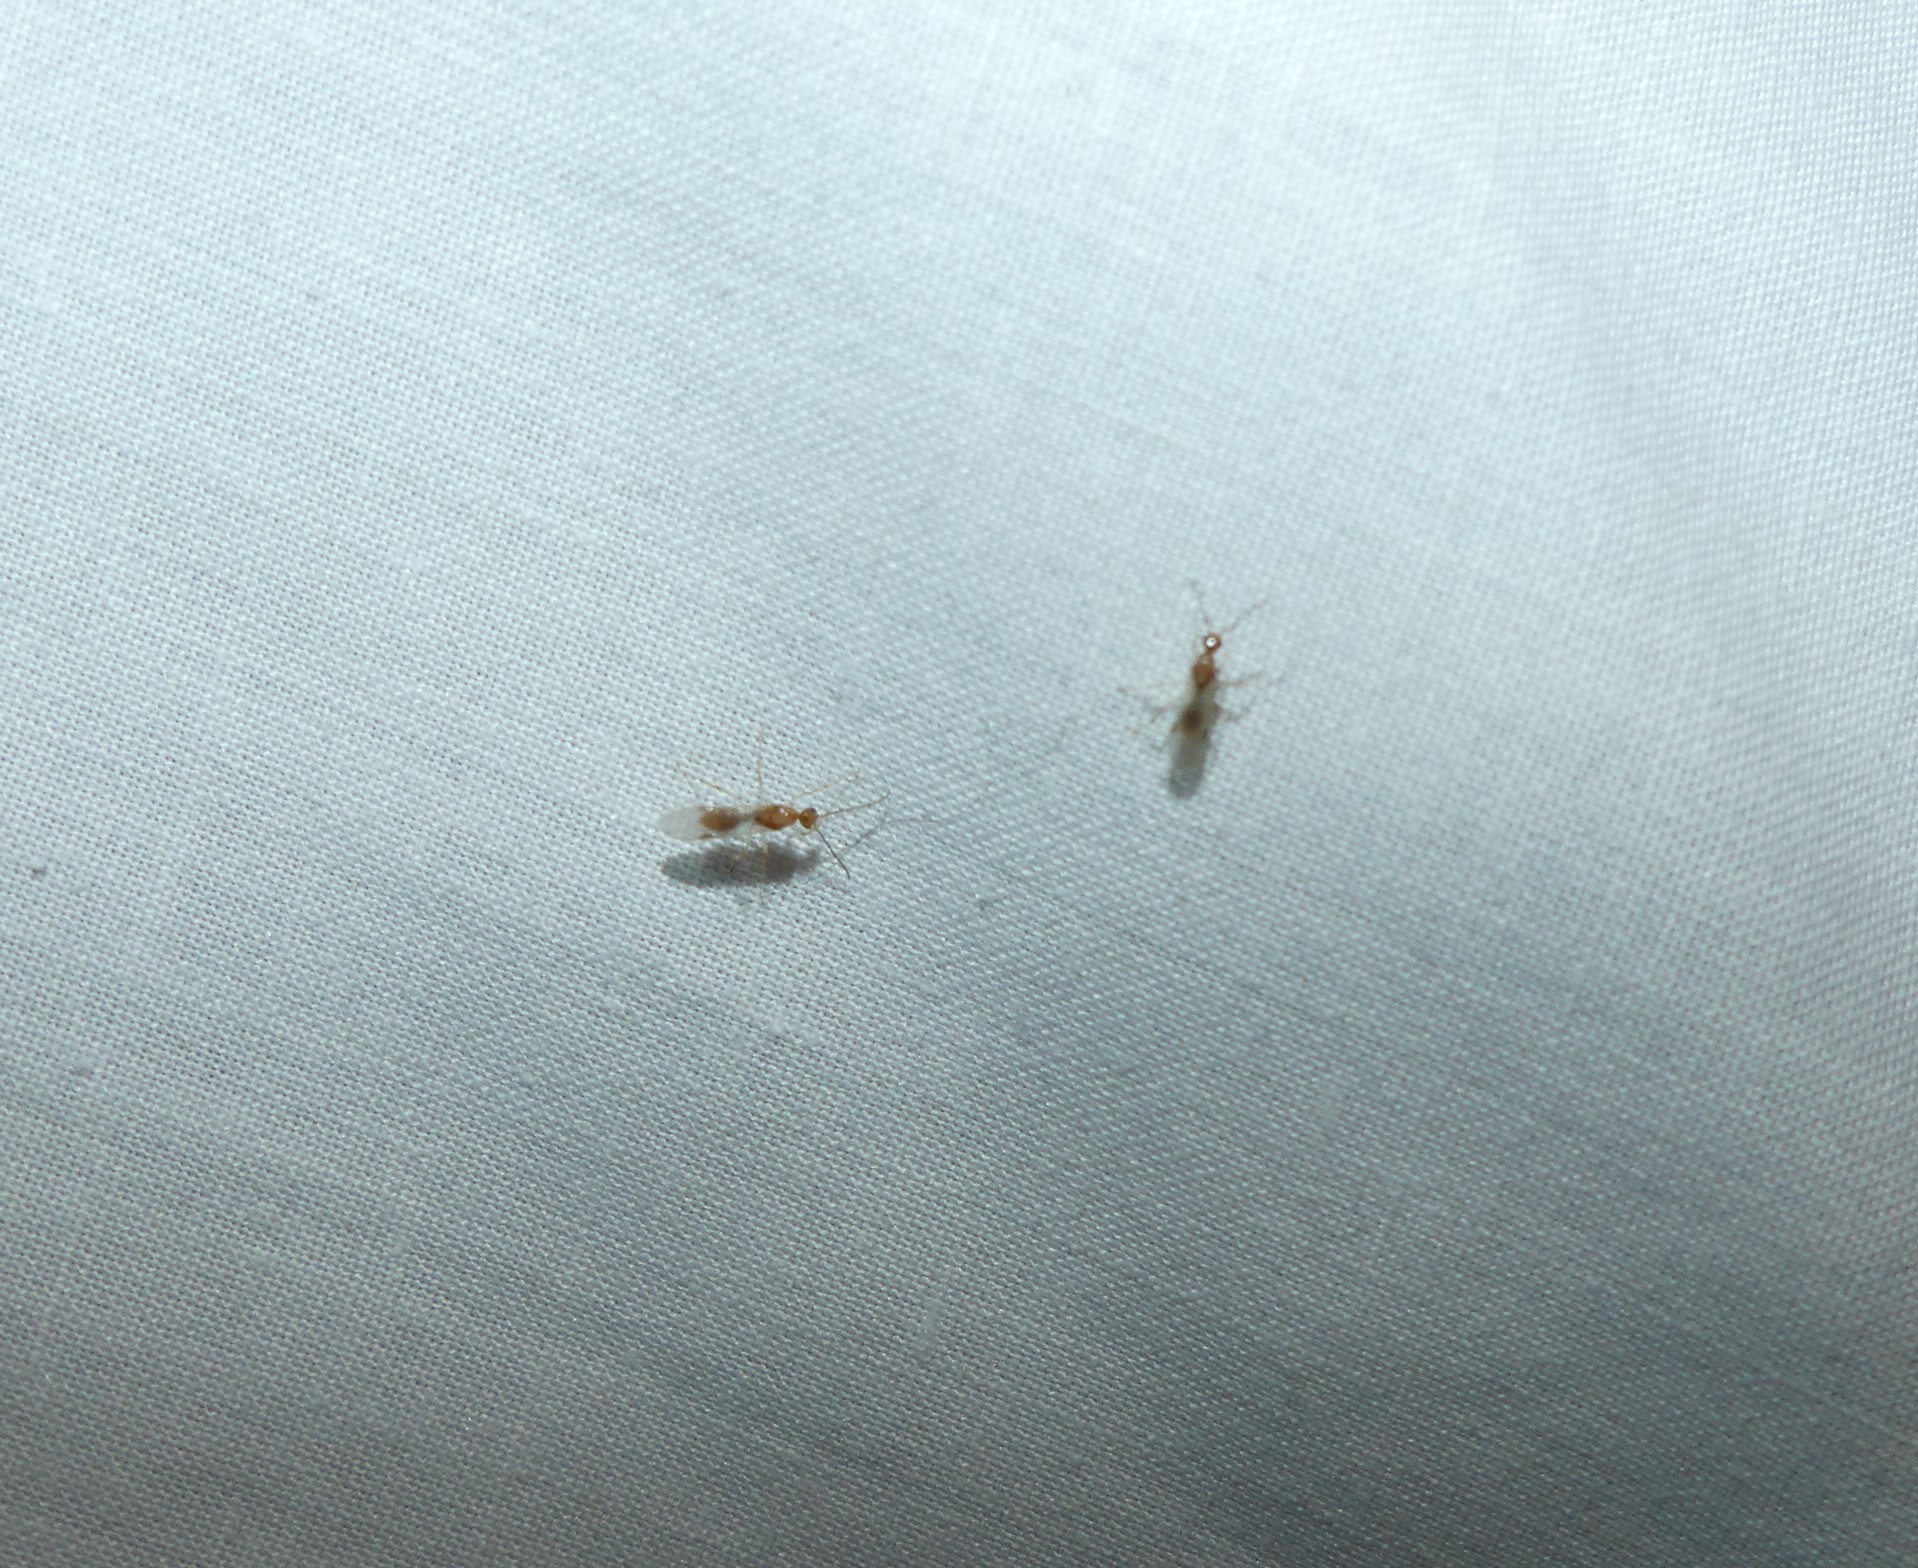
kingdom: Animalia
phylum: Arthropoda
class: Insecta
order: Hymenoptera
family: Formicidae
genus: Pachycondyla
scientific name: Pachycondyla chinensis
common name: Asian needle ant
